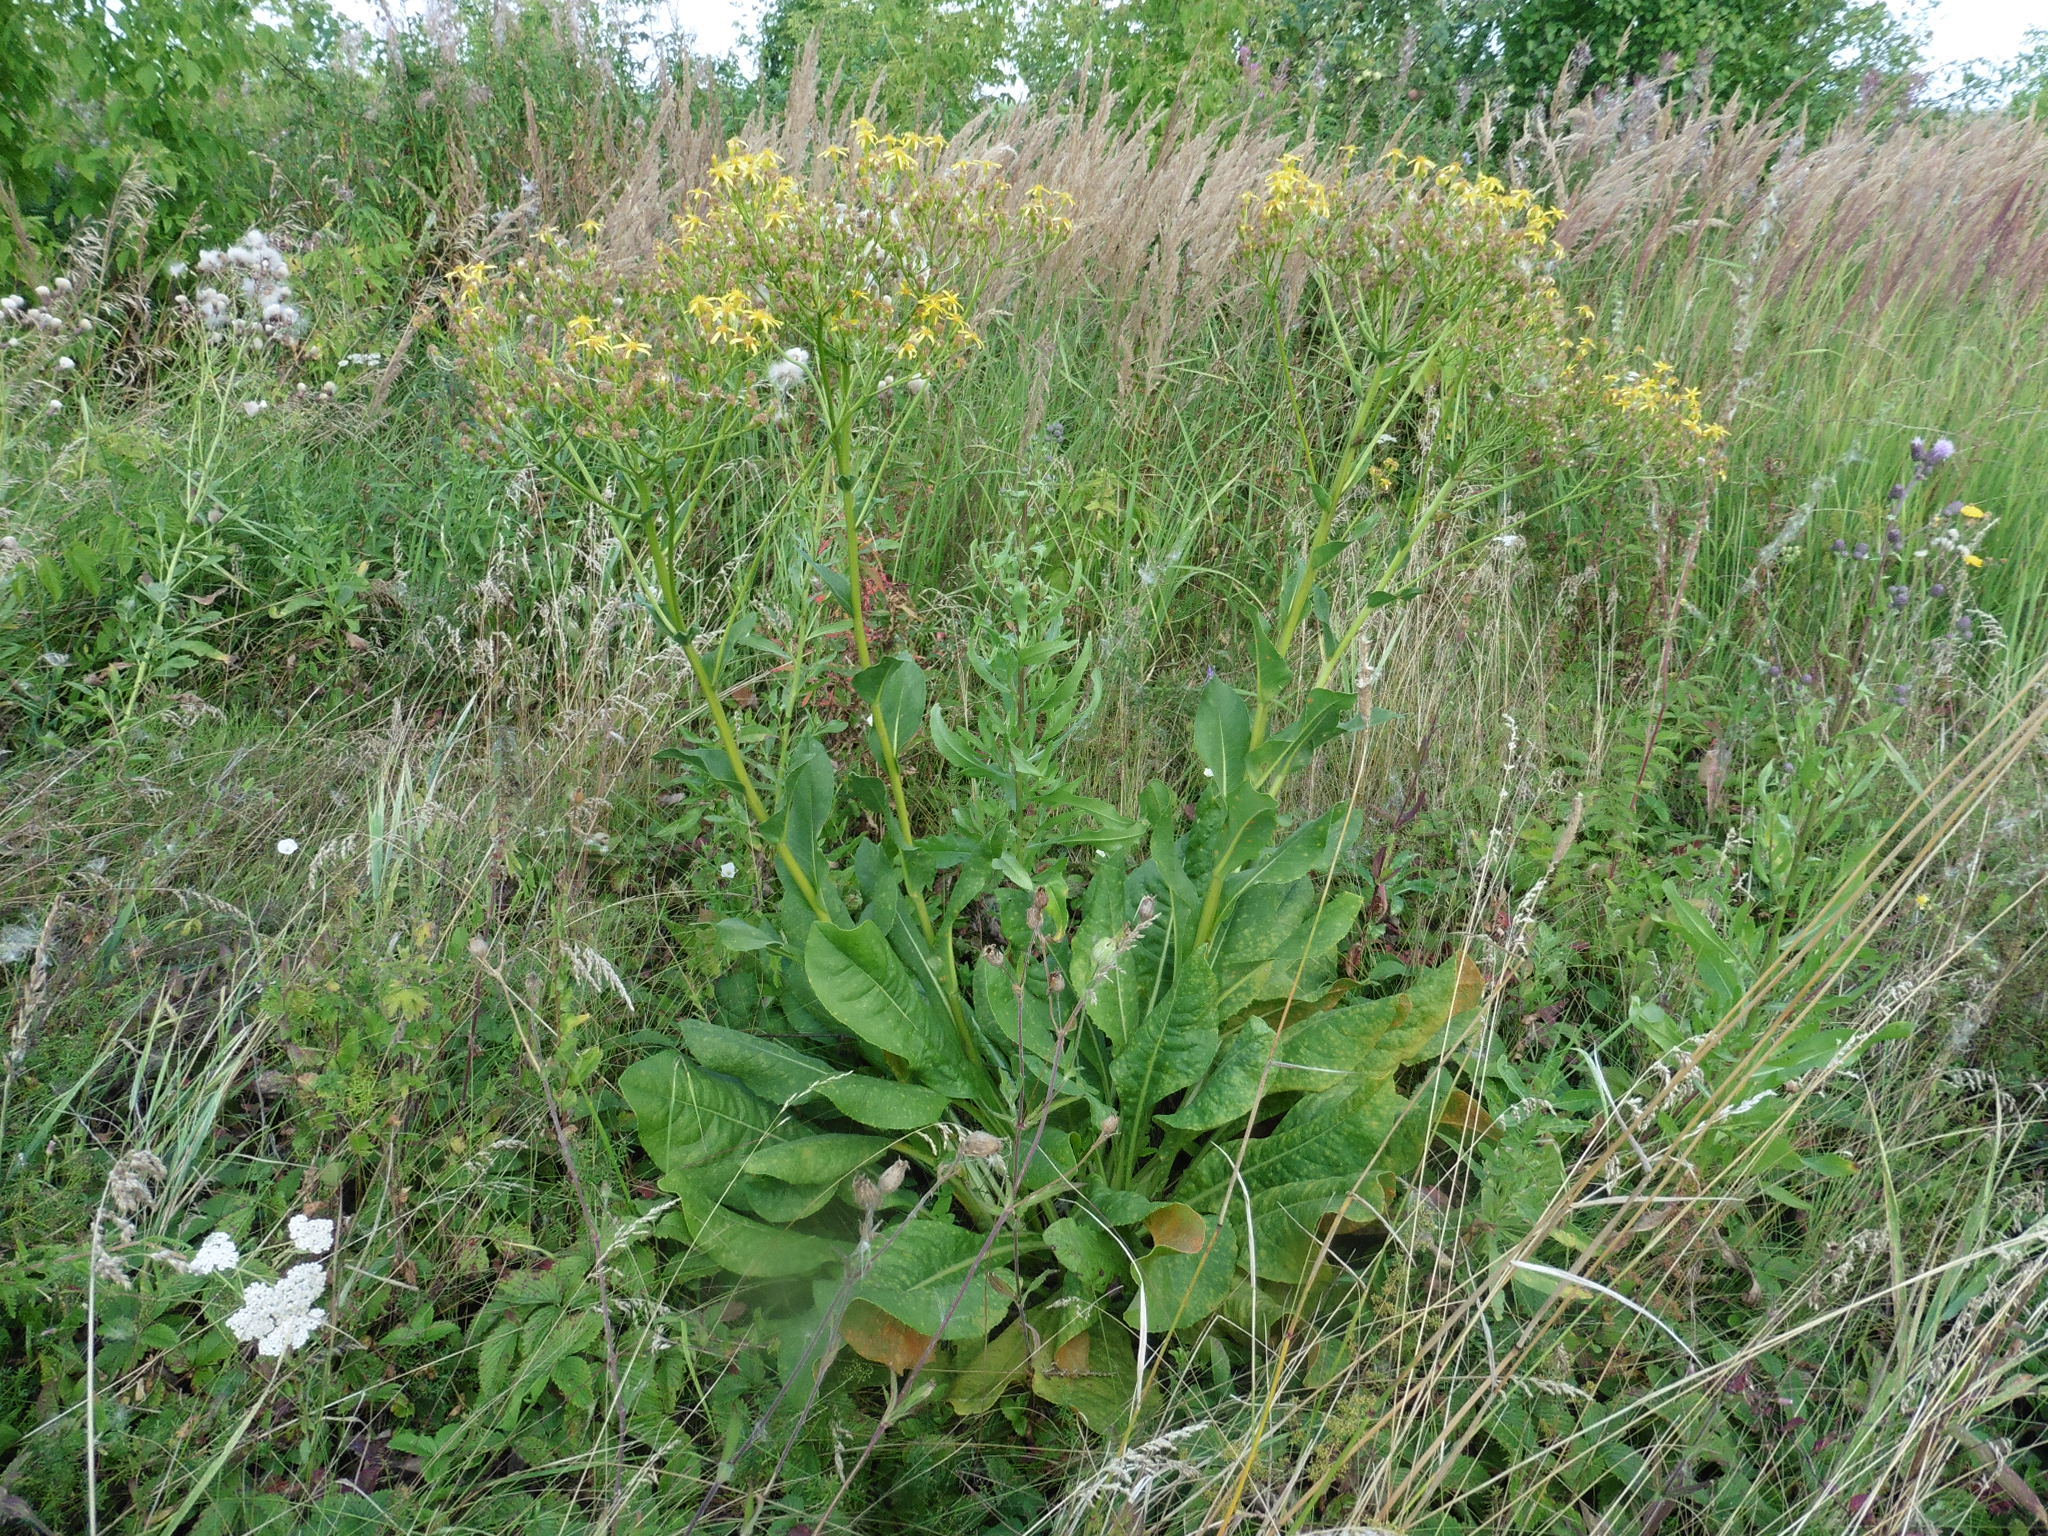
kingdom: Plantae
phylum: Tracheophyta
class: Magnoliopsida
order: Asterales
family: Asteraceae
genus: Senecio
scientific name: Senecio doria
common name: Golden ragwort
